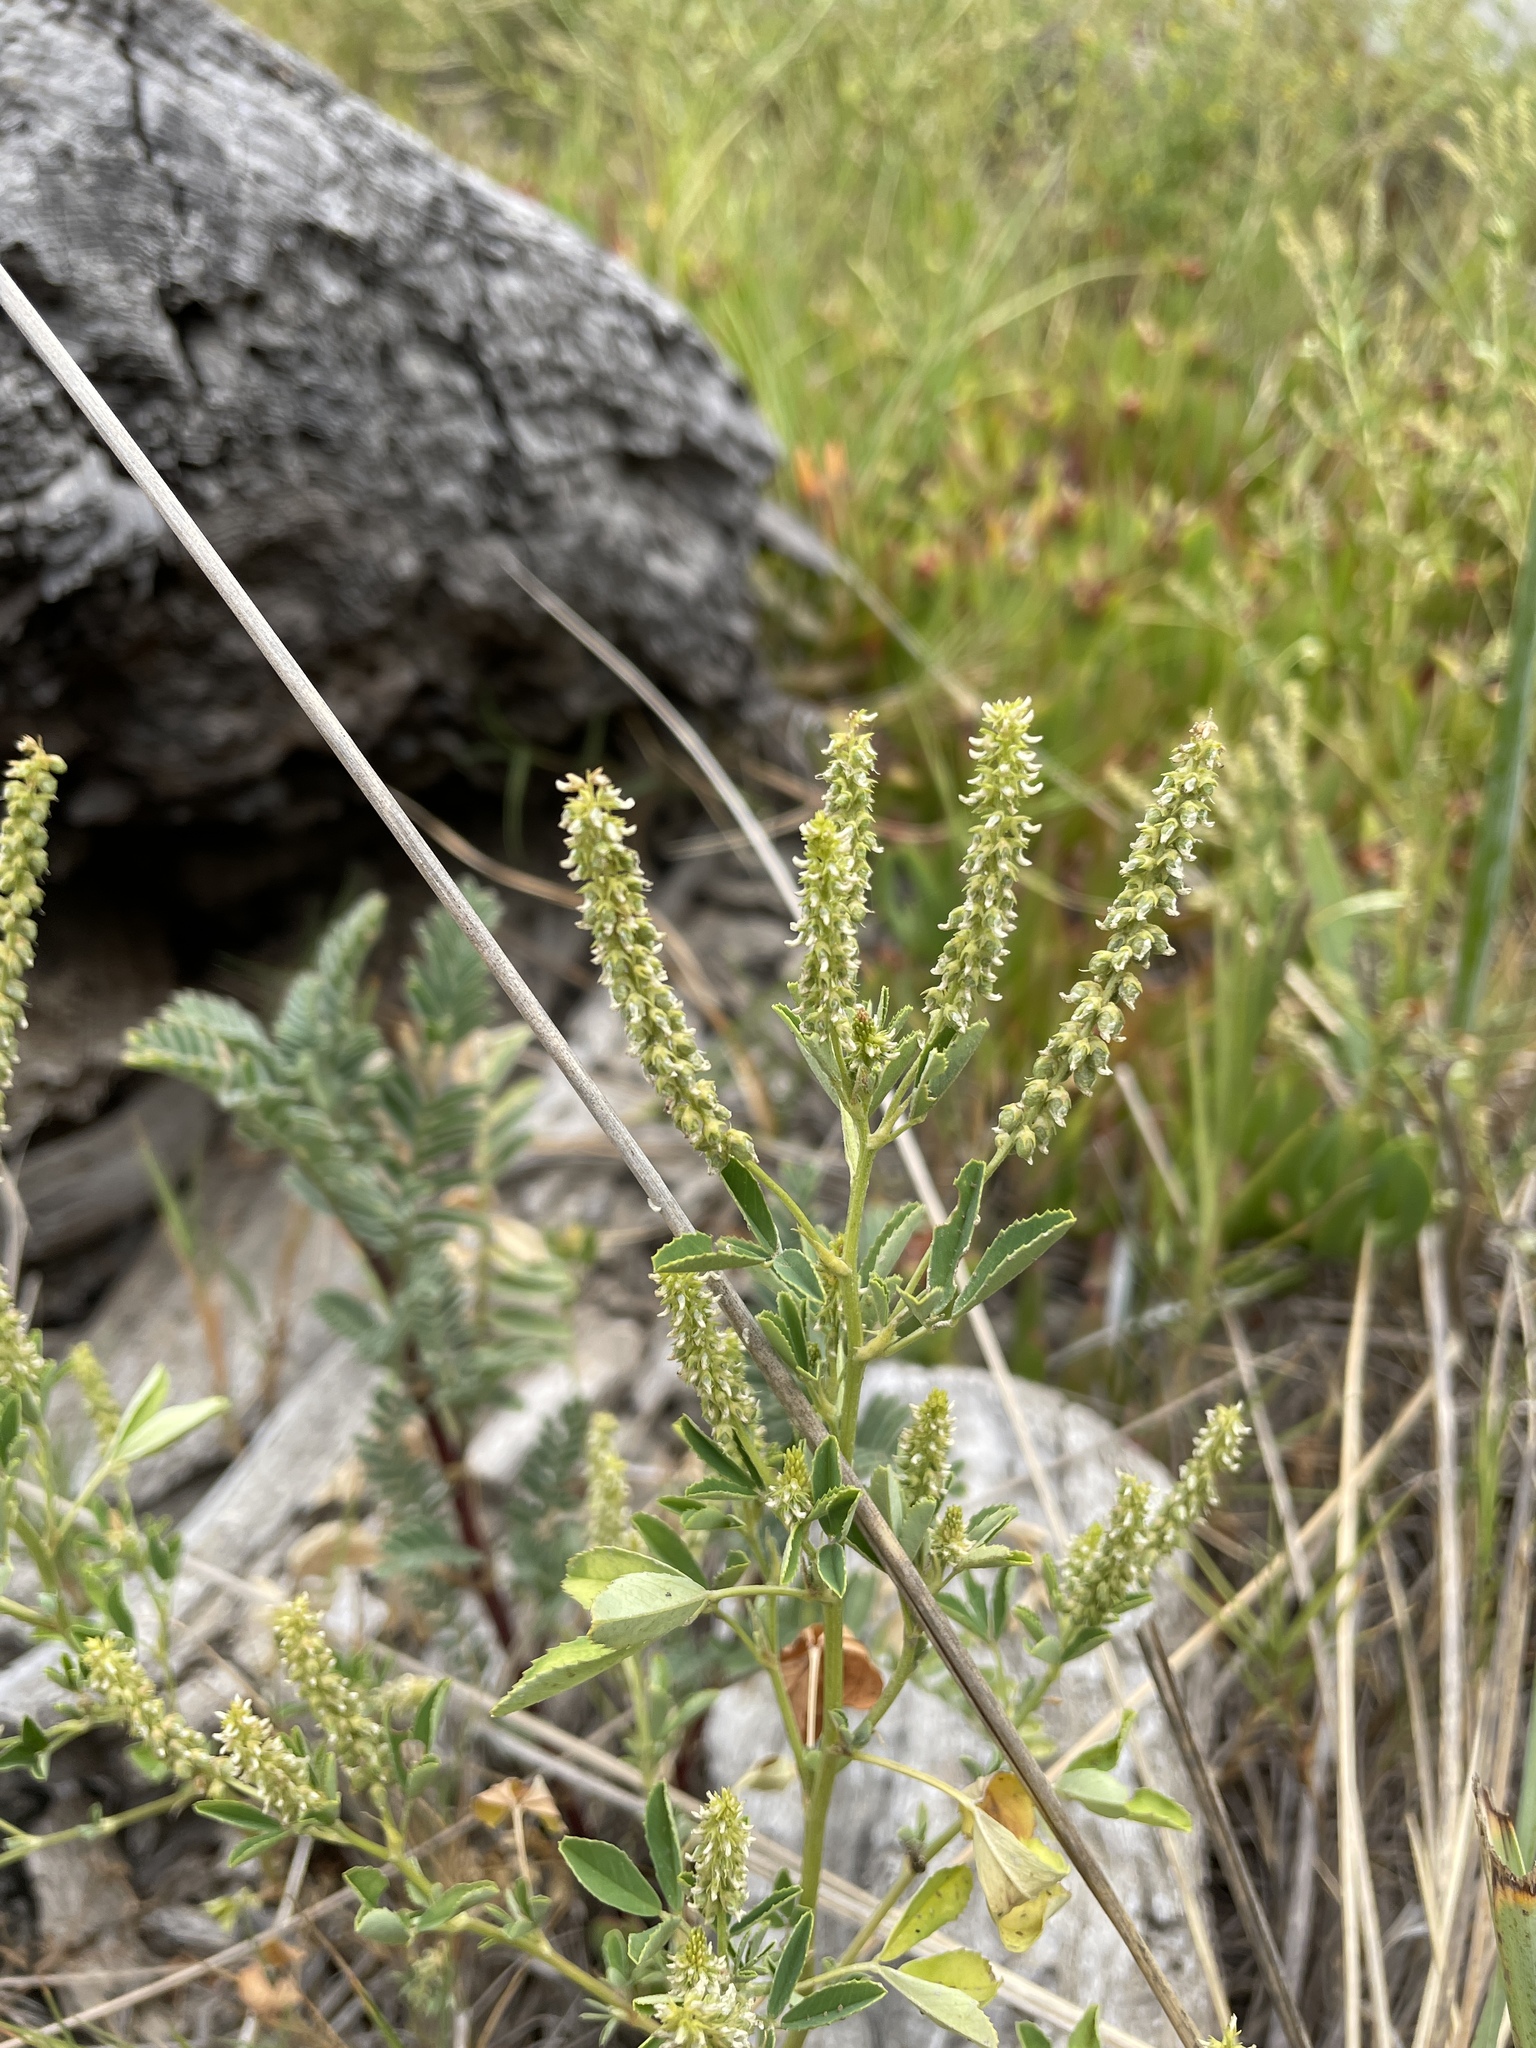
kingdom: Plantae
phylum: Tracheophyta
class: Magnoliopsida
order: Fabales
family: Fabaceae
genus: Melilotus
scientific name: Melilotus indicus
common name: Small melilot
